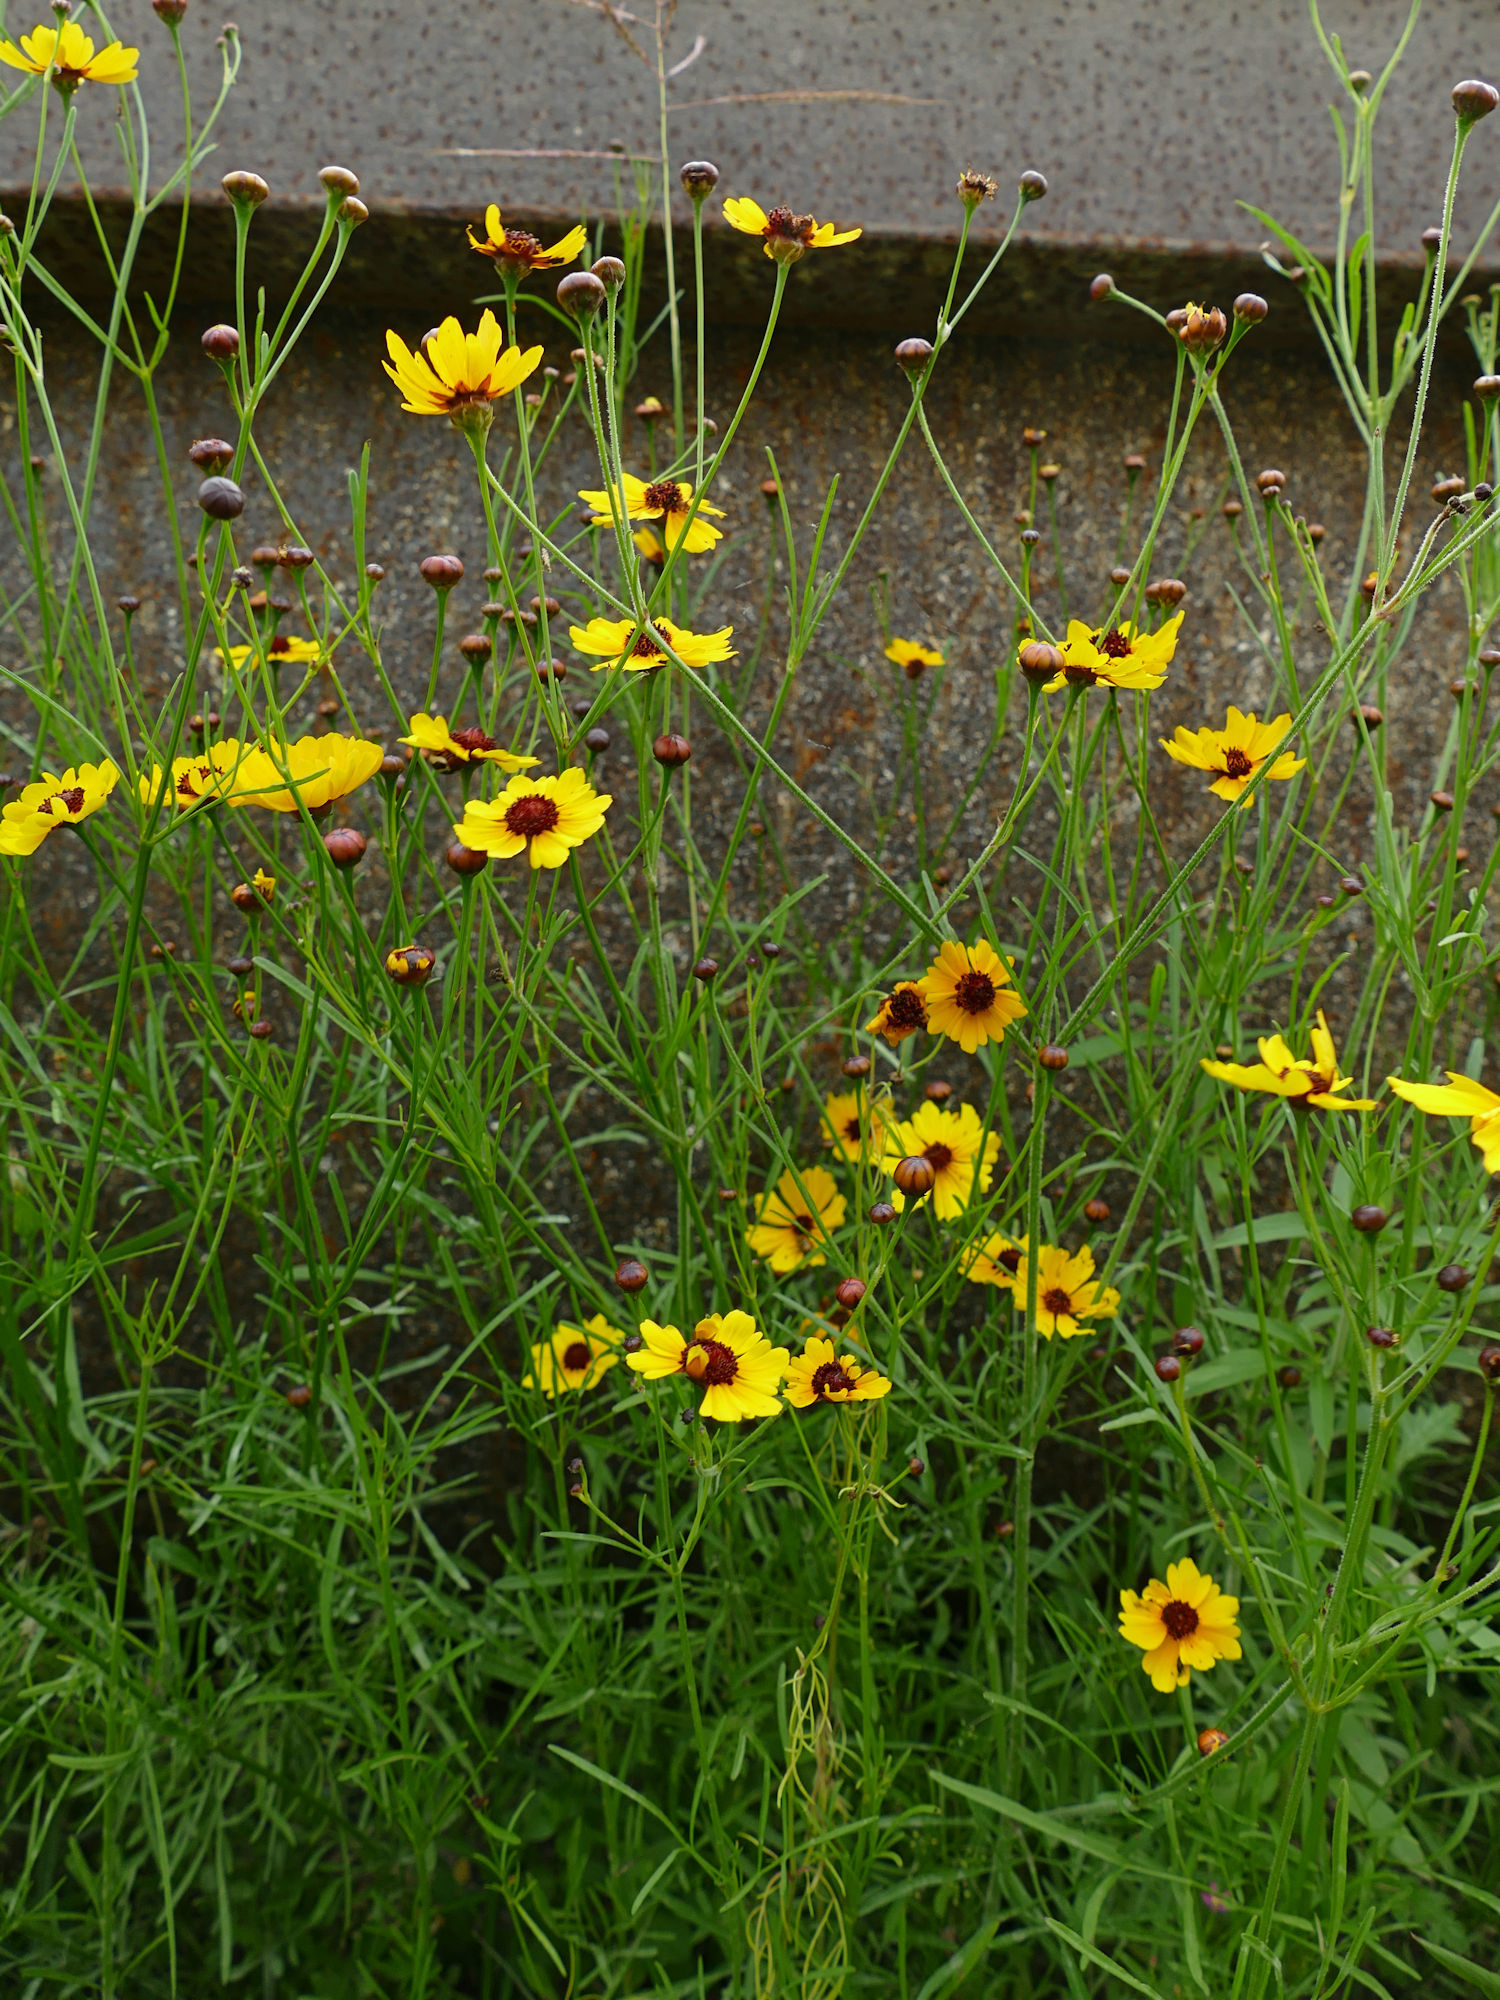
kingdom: Plantae
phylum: Tracheophyta
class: Magnoliopsida
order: Asterales
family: Asteraceae
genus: Coreopsis
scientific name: Coreopsis tinctoria
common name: Garden tickseed
